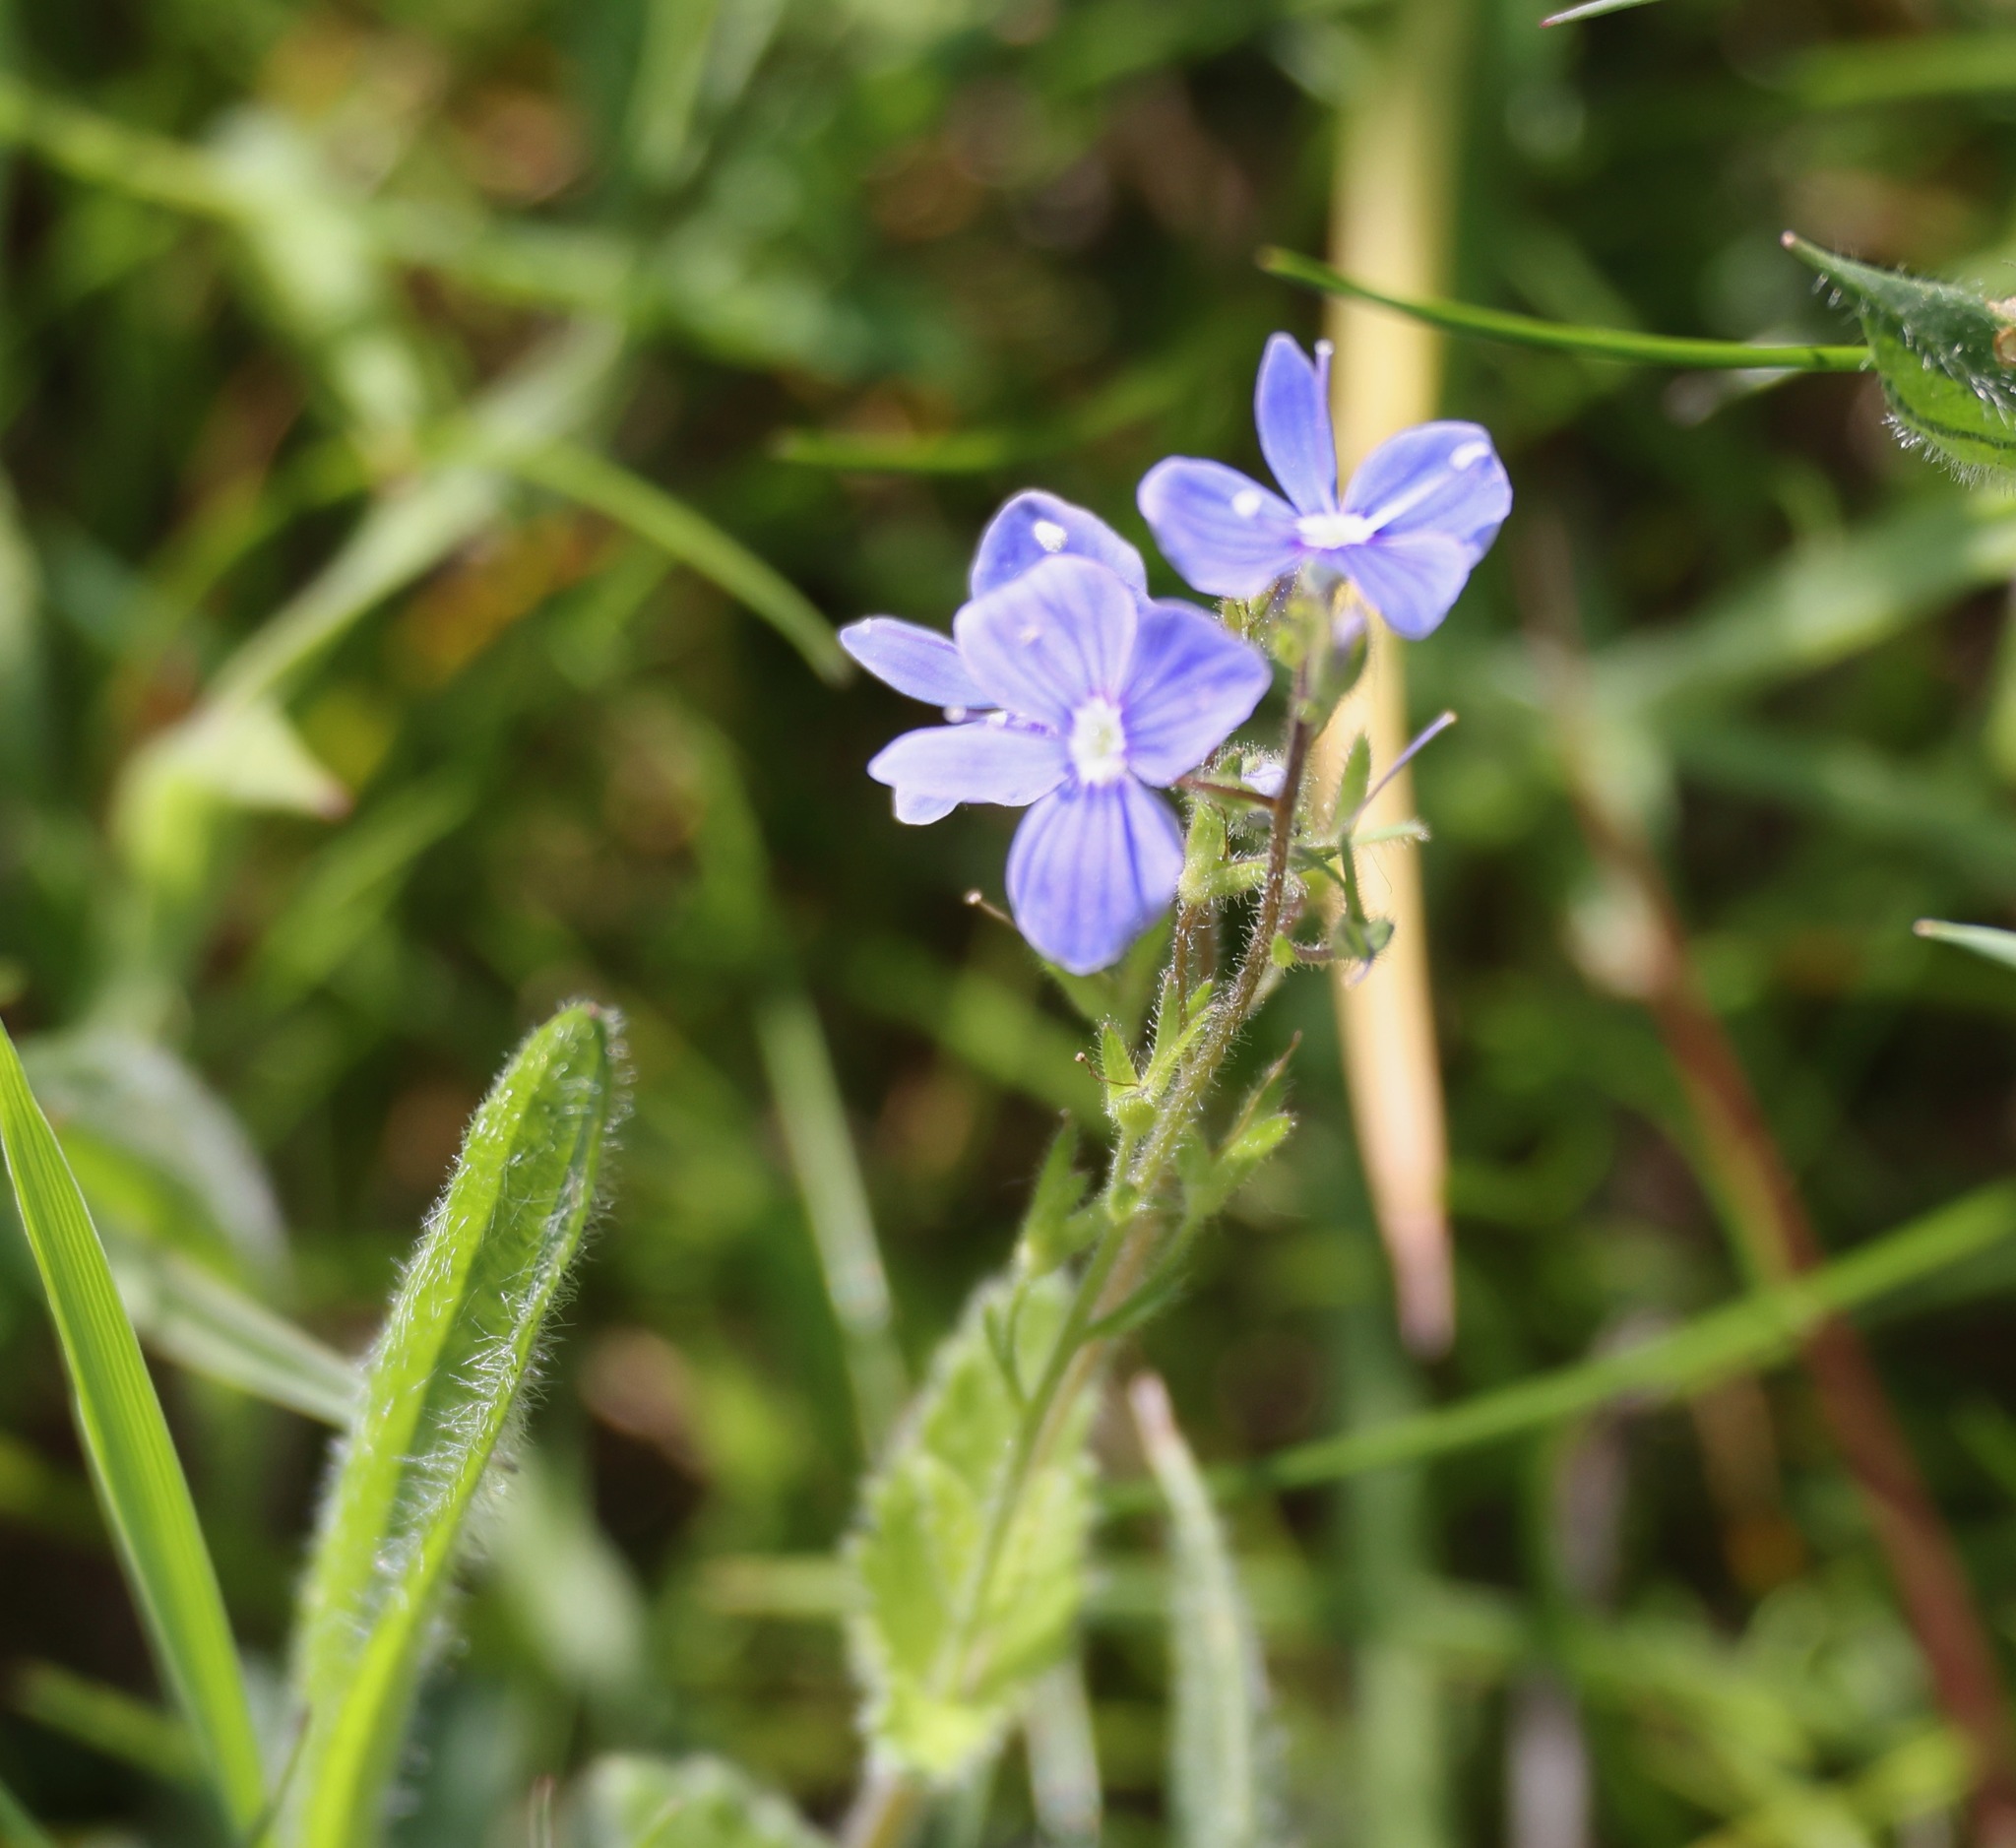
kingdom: Plantae
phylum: Tracheophyta
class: Magnoliopsida
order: Lamiales
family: Plantaginaceae
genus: Veronica
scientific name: Veronica chamaedrys
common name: Germander speedwell
